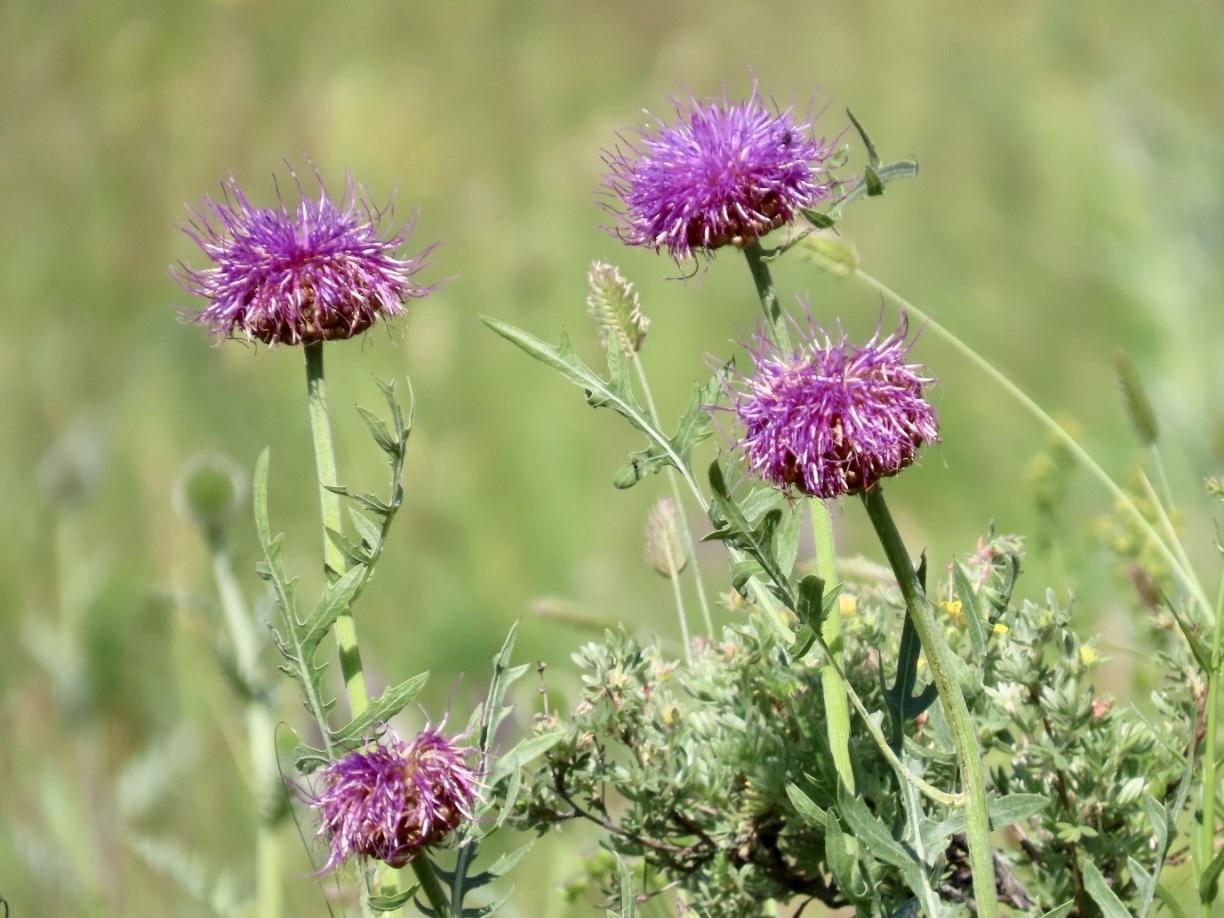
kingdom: Plantae
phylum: Tracheophyta
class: Magnoliopsida
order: Asterales
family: Asteraceae
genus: Leuzea
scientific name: Leuzea uniflora
